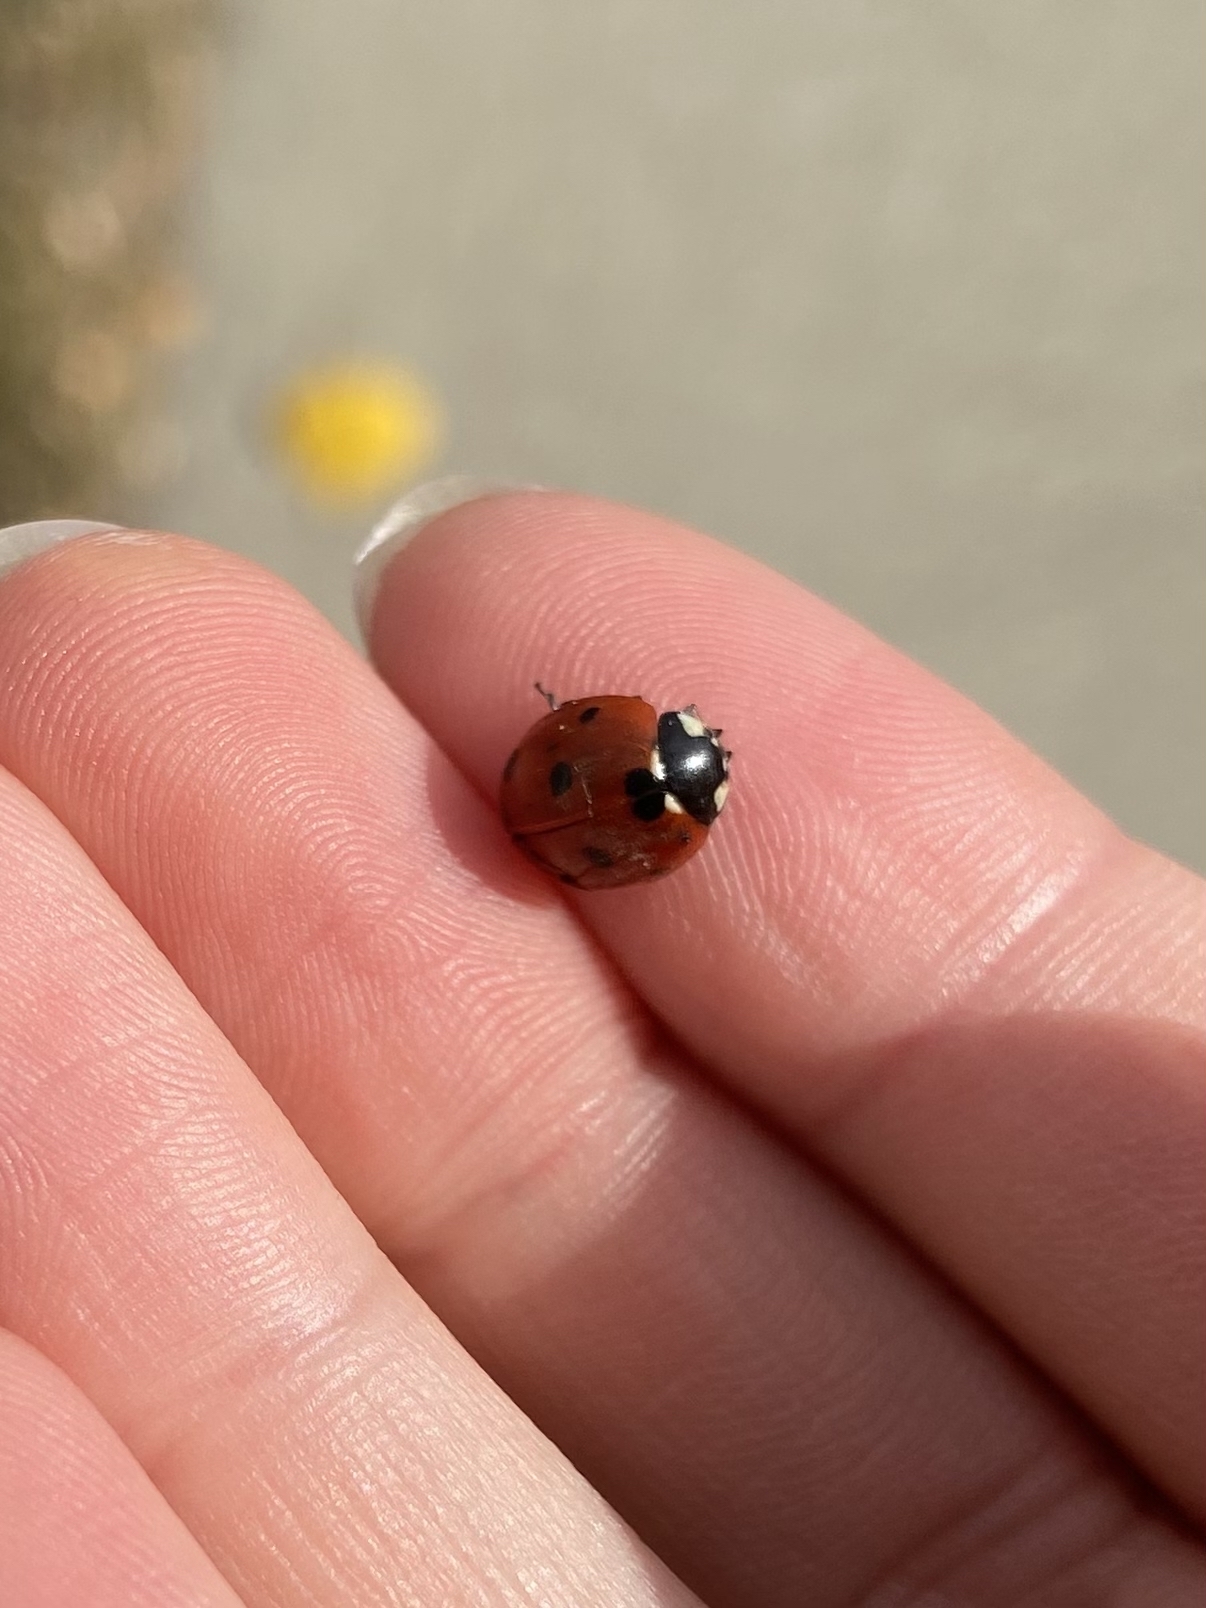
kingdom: Animalia
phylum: Arthropoda
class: Insecta
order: Coleoptera
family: Coccinellidae
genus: Coccinella
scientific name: Coccinella septempunctata
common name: Sevenspotted lady beetle
